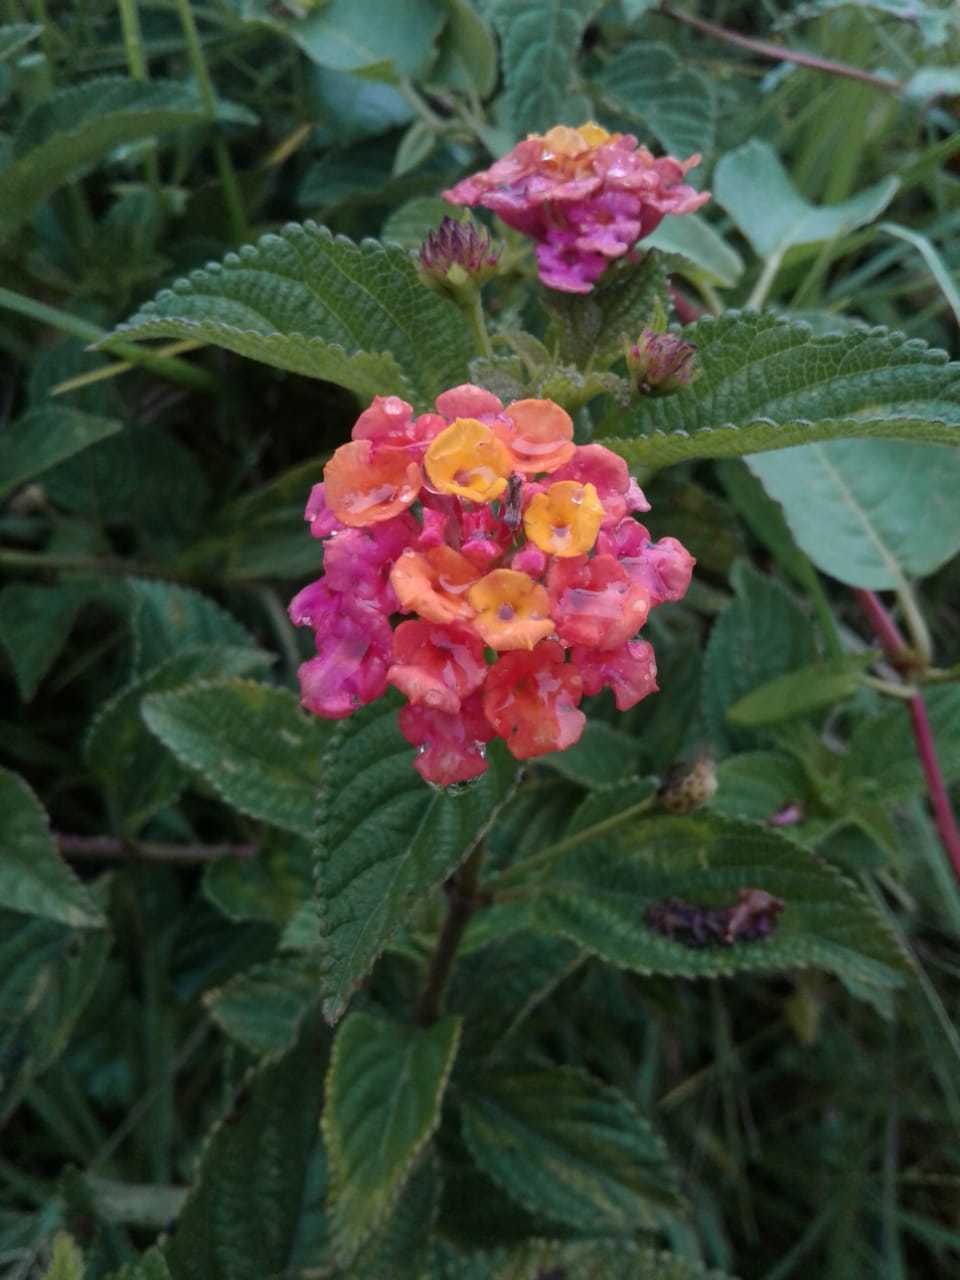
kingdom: Plantae
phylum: Tracheophyta
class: Magnoliopsida
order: Lamiales
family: Verbenaceae
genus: Lantana
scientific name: Lantana camara
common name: Lantana
